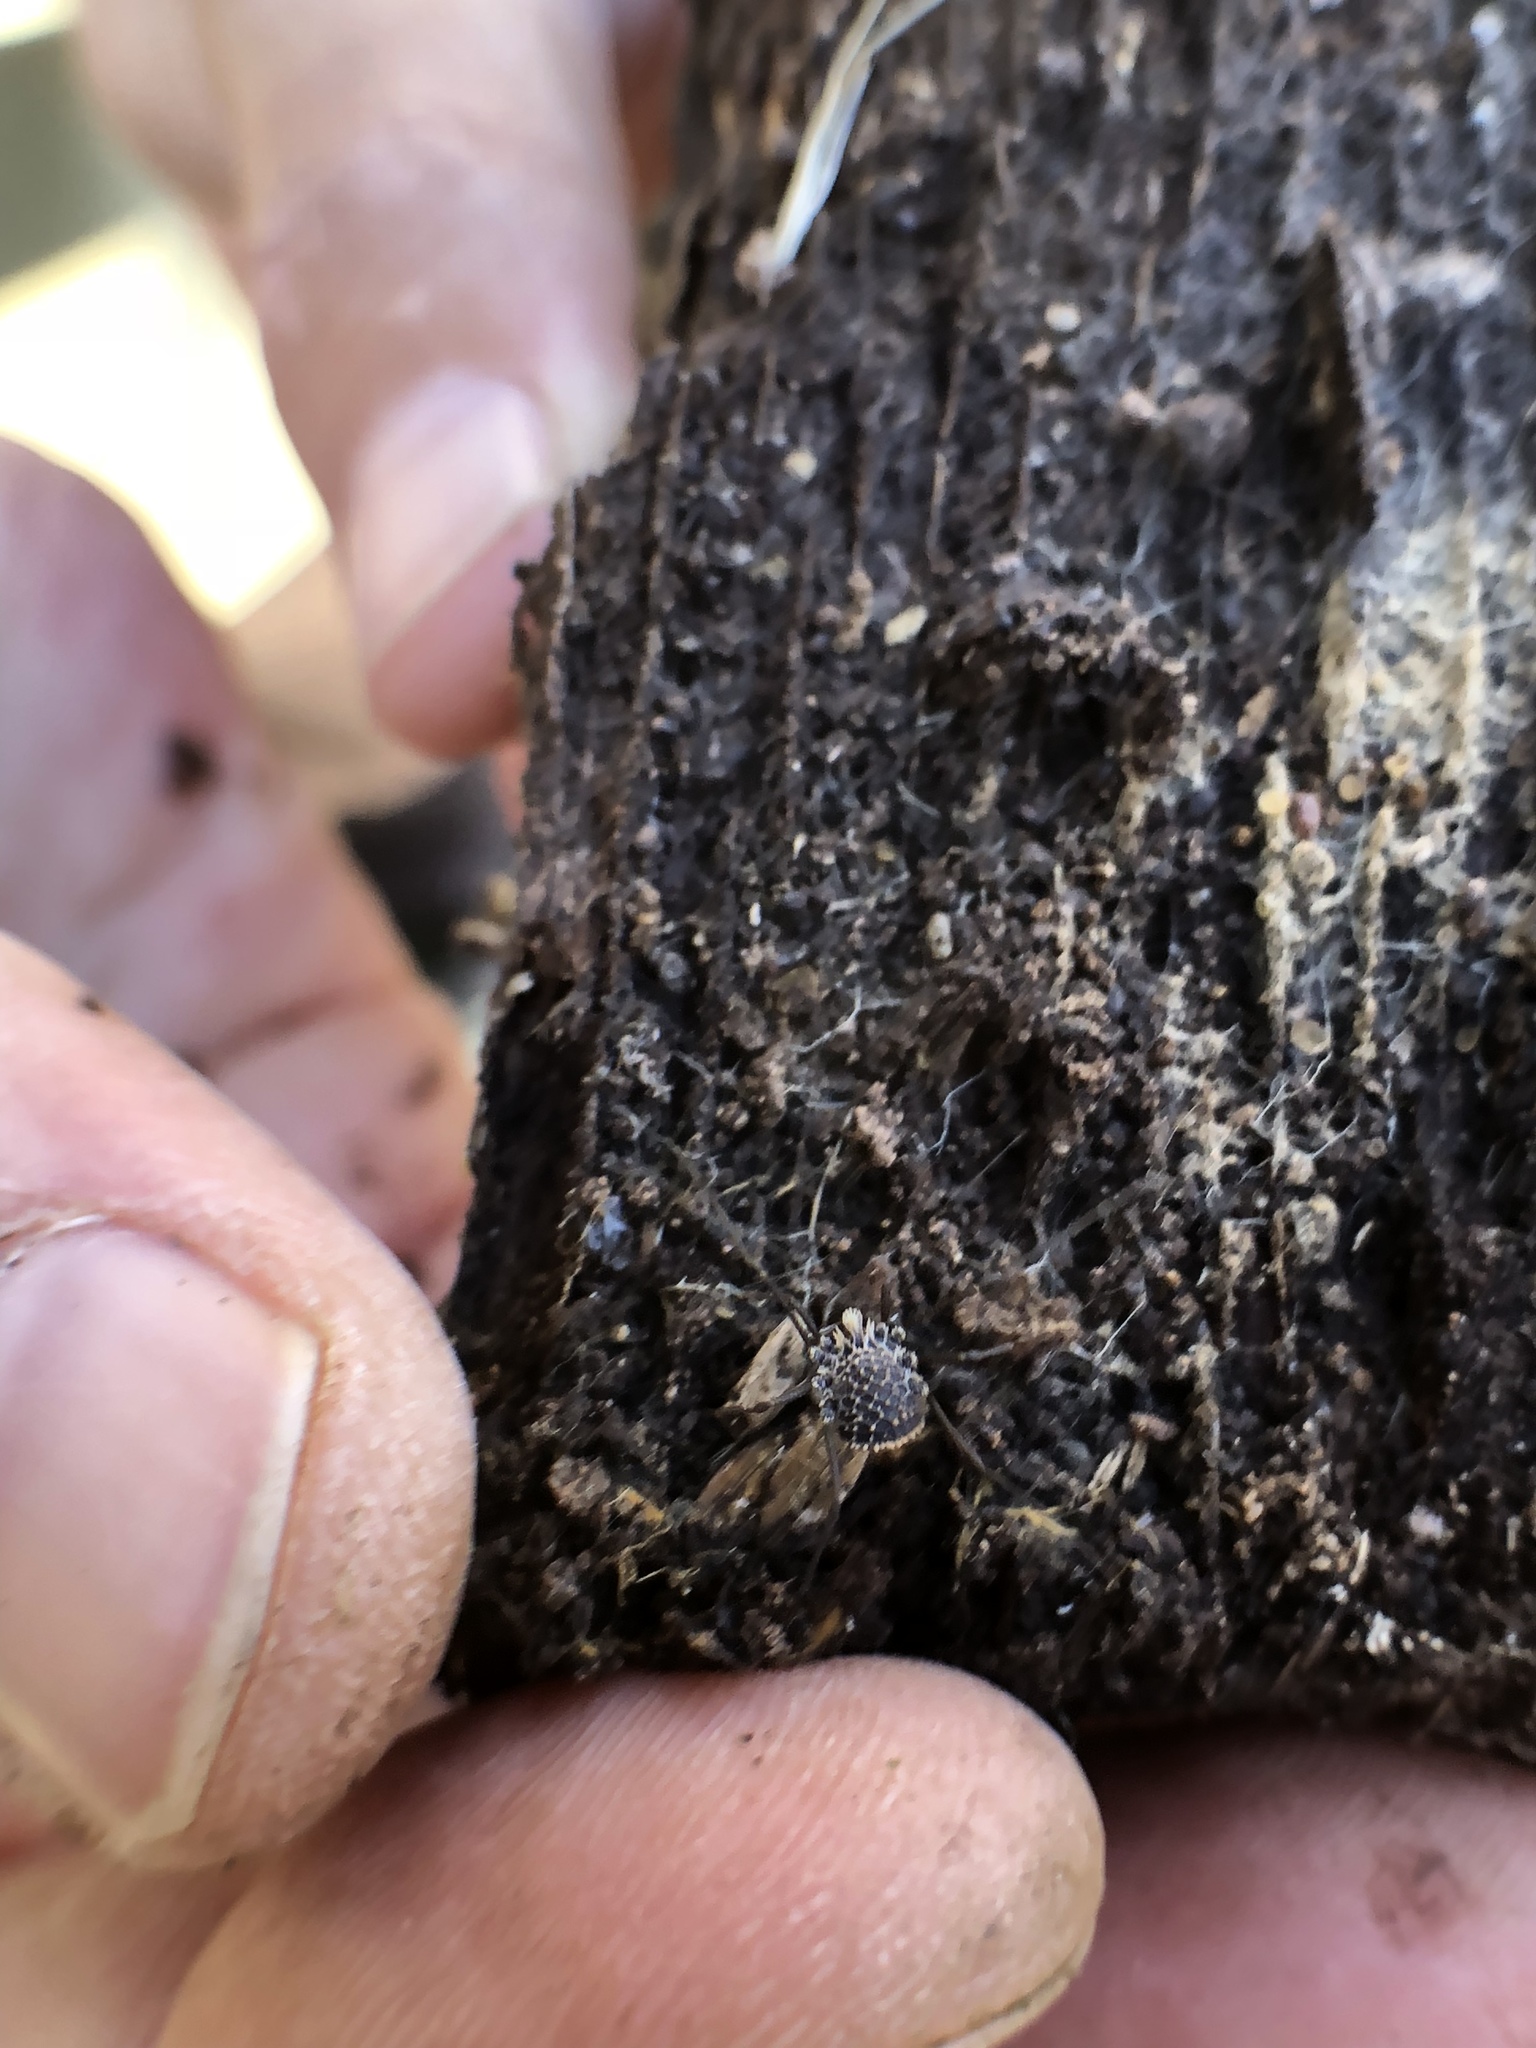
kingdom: Animalia
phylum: Arthropoda
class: Arachnida
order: Opiliones
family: Nemastomatidae
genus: Ortholasma
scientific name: Ortholasma coronadense
